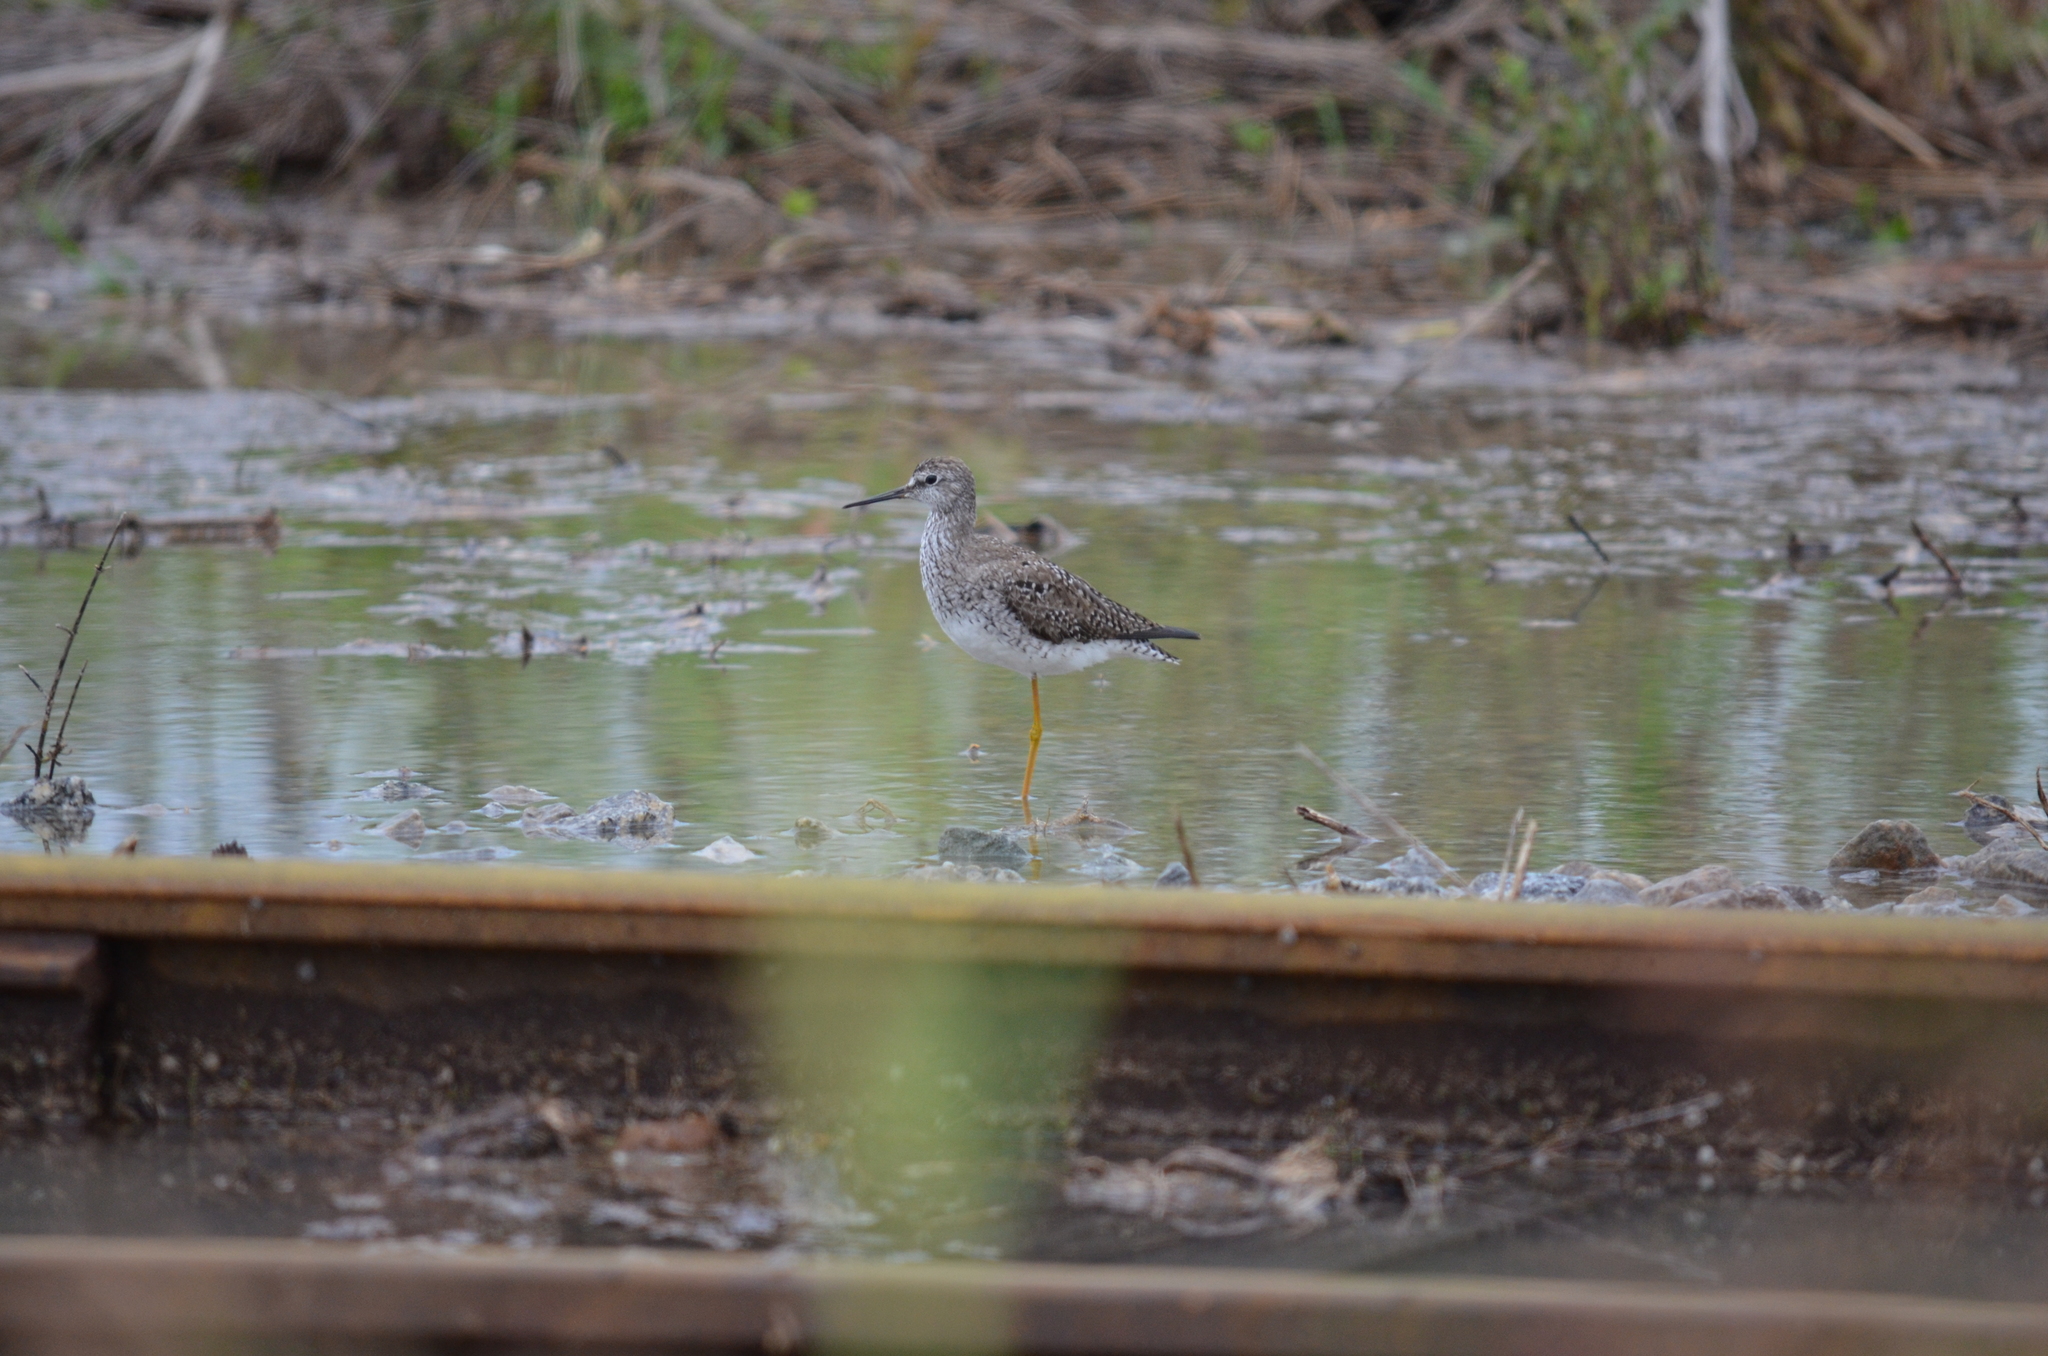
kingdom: Animalia
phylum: Chordata
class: Aves
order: Charadriiformes
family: Scolopacidae
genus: Tringa
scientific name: Tringa flavipes
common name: Lesser yellowlegs
